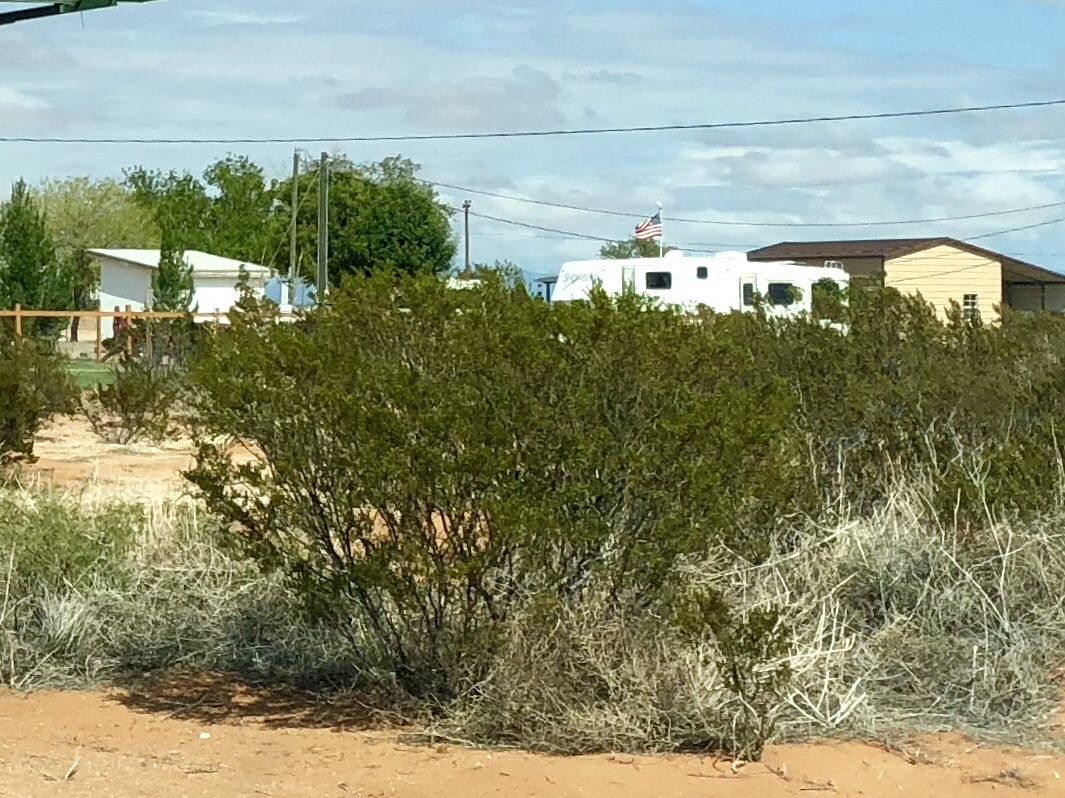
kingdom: Plantae
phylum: Tracheophyta
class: Magnoliopsida
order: Zygophyllales
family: Zygophyllaceae
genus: Larrea
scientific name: Larrea tridentata
